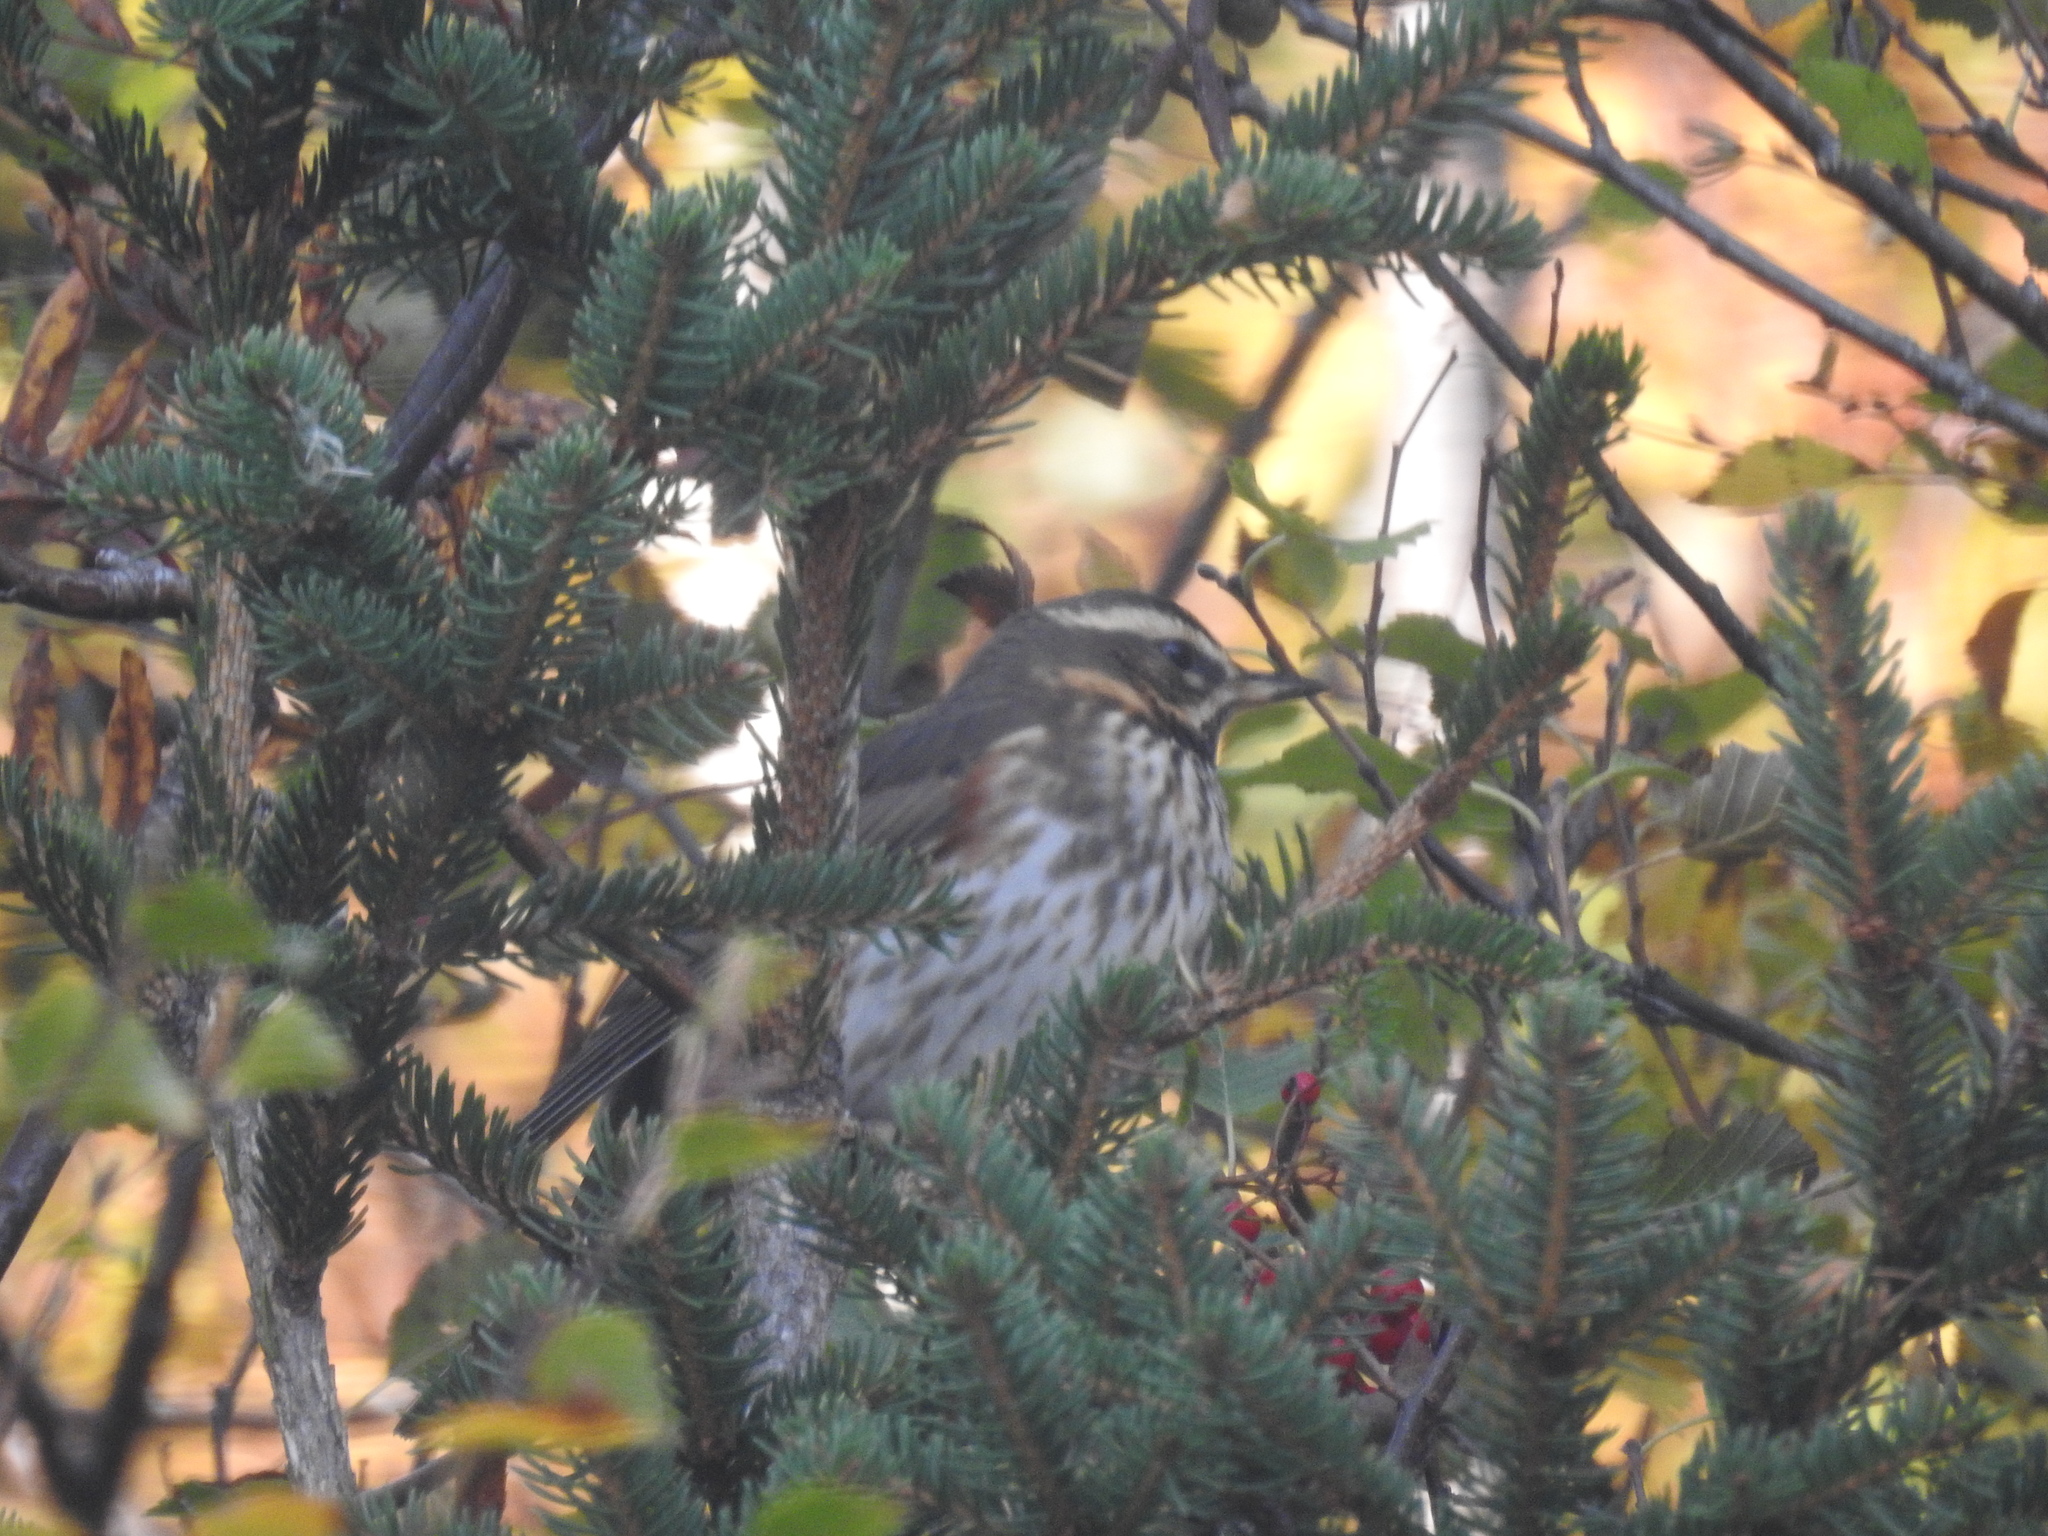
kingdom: Animalia
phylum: Chordata
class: Aves
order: Passeriformes
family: Turdidae
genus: Turdus
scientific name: Turdus iliacus
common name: Redwing
